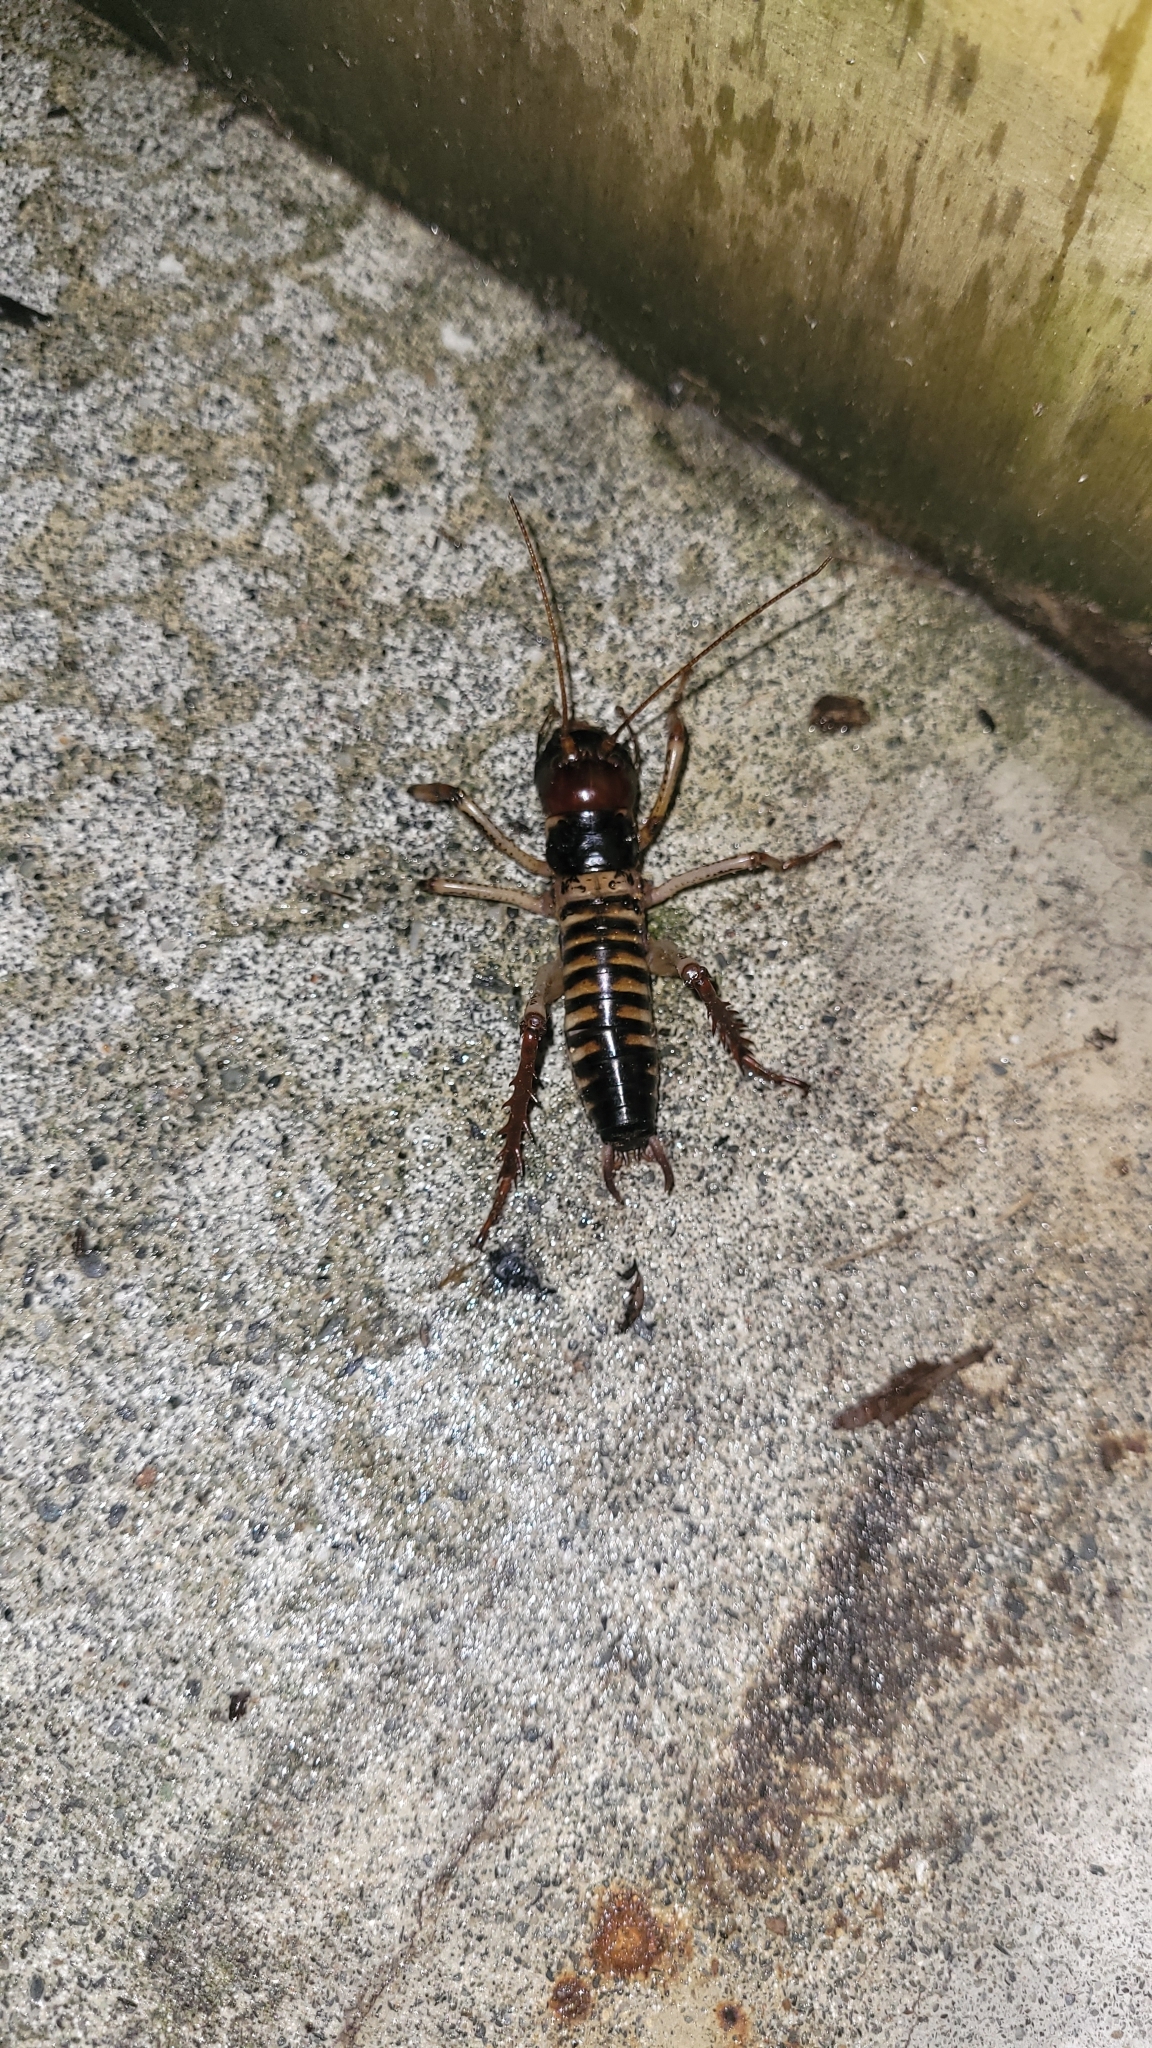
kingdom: Animalia
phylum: Arthropoda
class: Insecta
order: Orthoptera
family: Anostostomatidae
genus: Hemideina
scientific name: Hemideina crassidens
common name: Wellington tree weta
